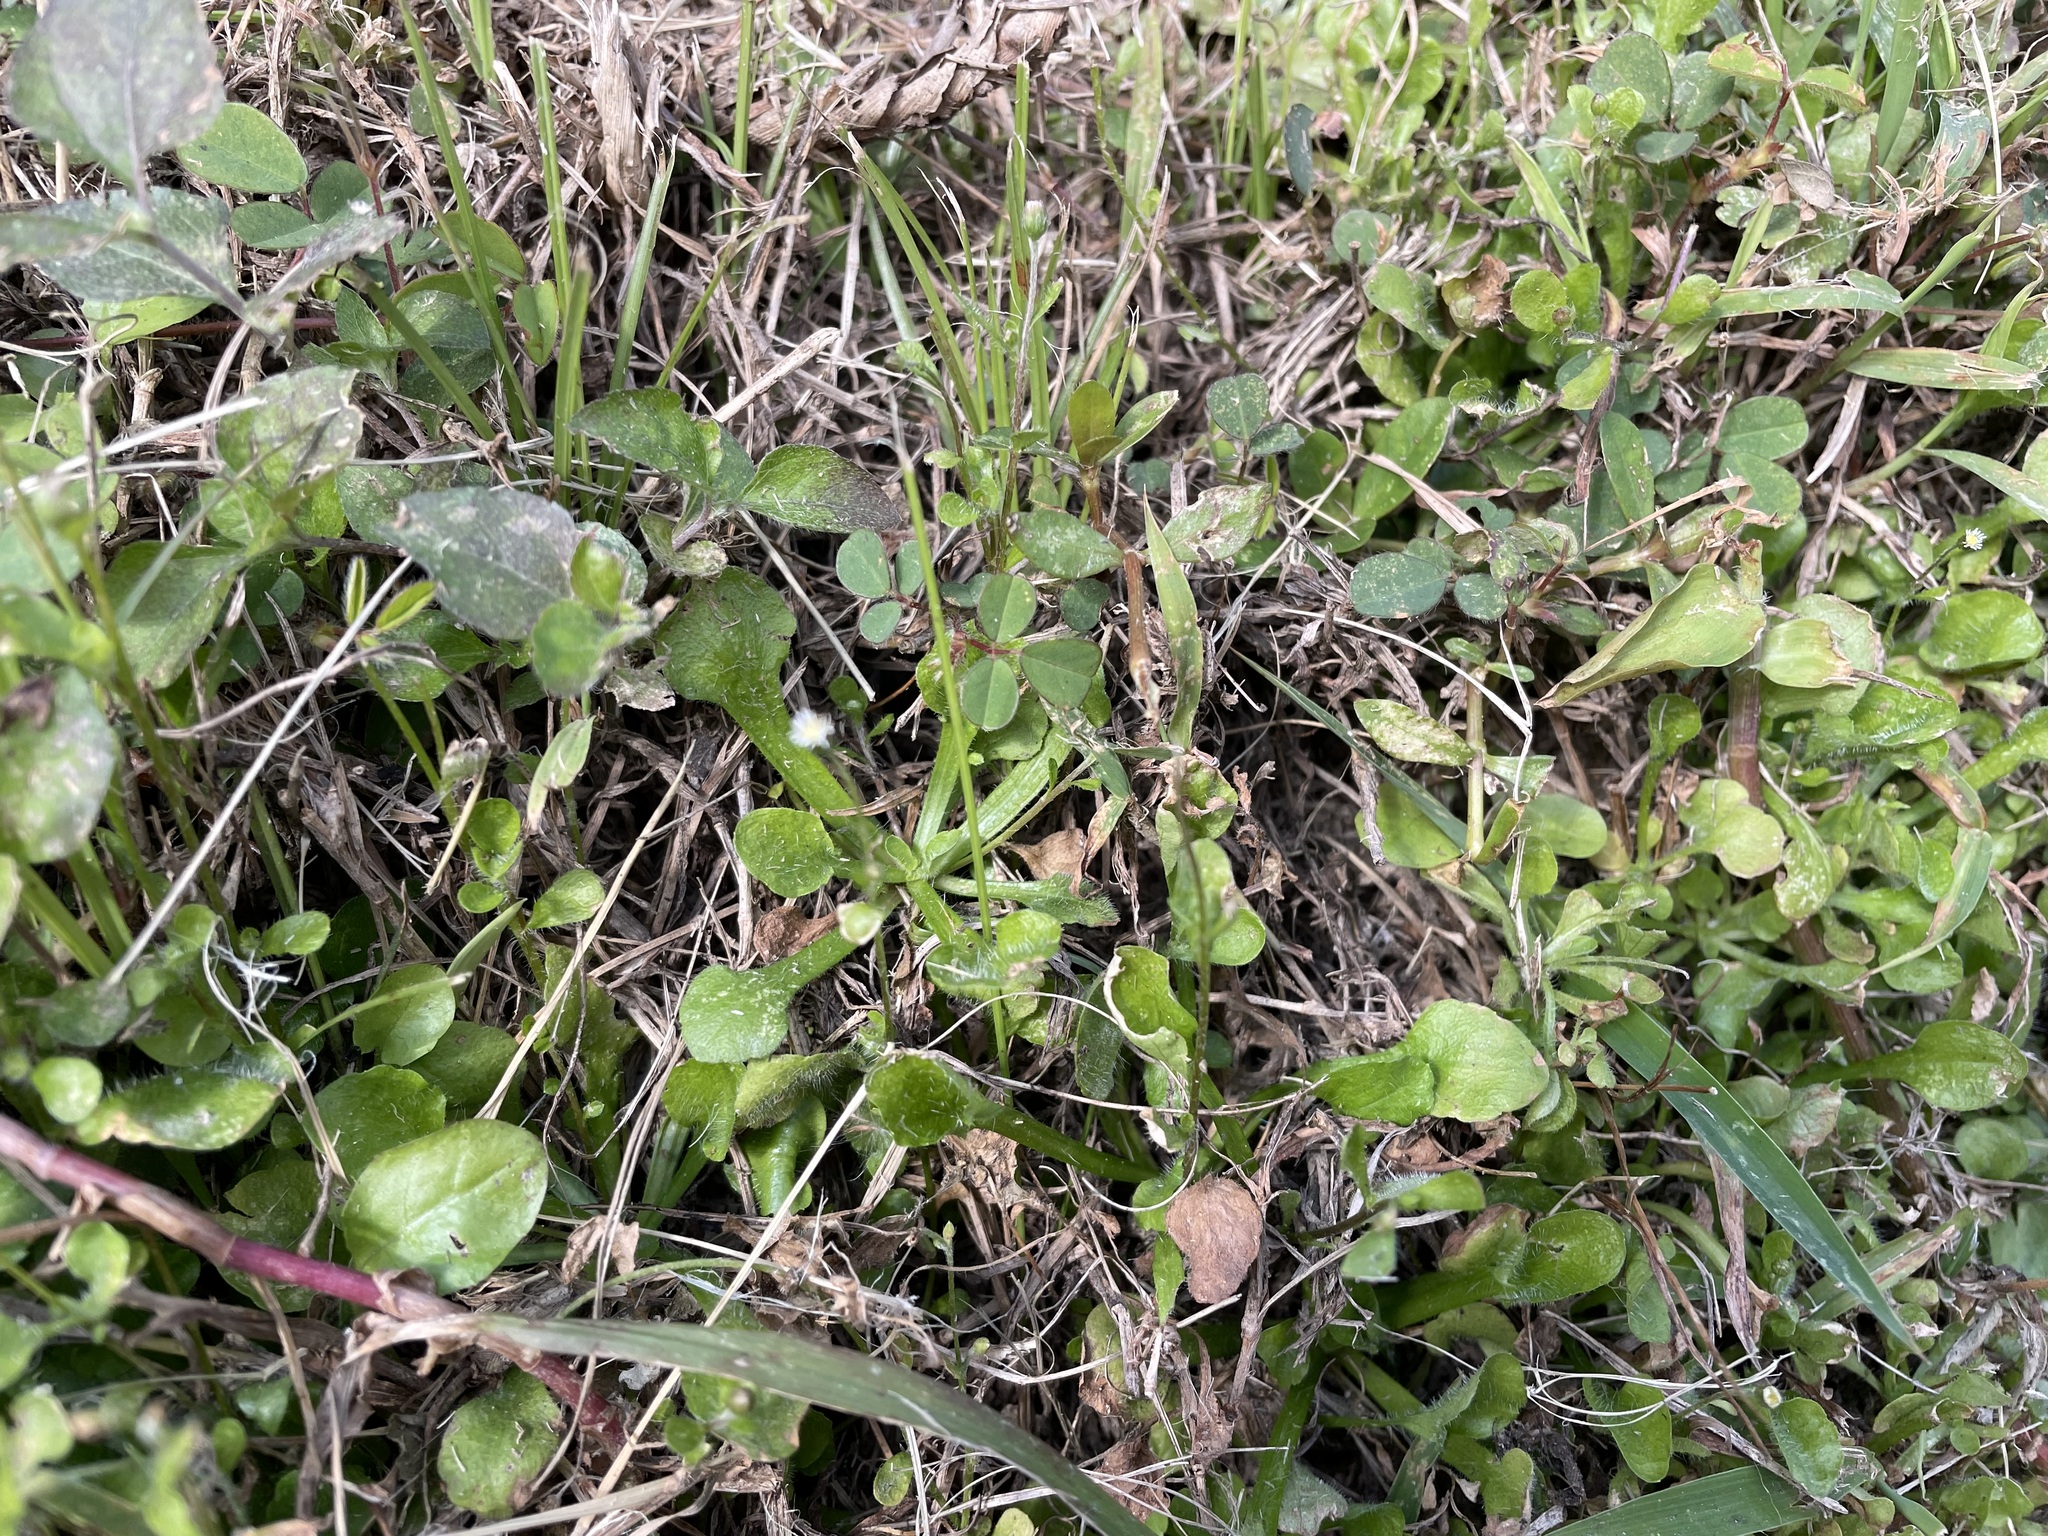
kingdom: Plantae
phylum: Tracheophyta
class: Magnoliopsida
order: Asterales
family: Asteraceae
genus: Erigeron
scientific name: Erigeron bellioides
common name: Bellorita
